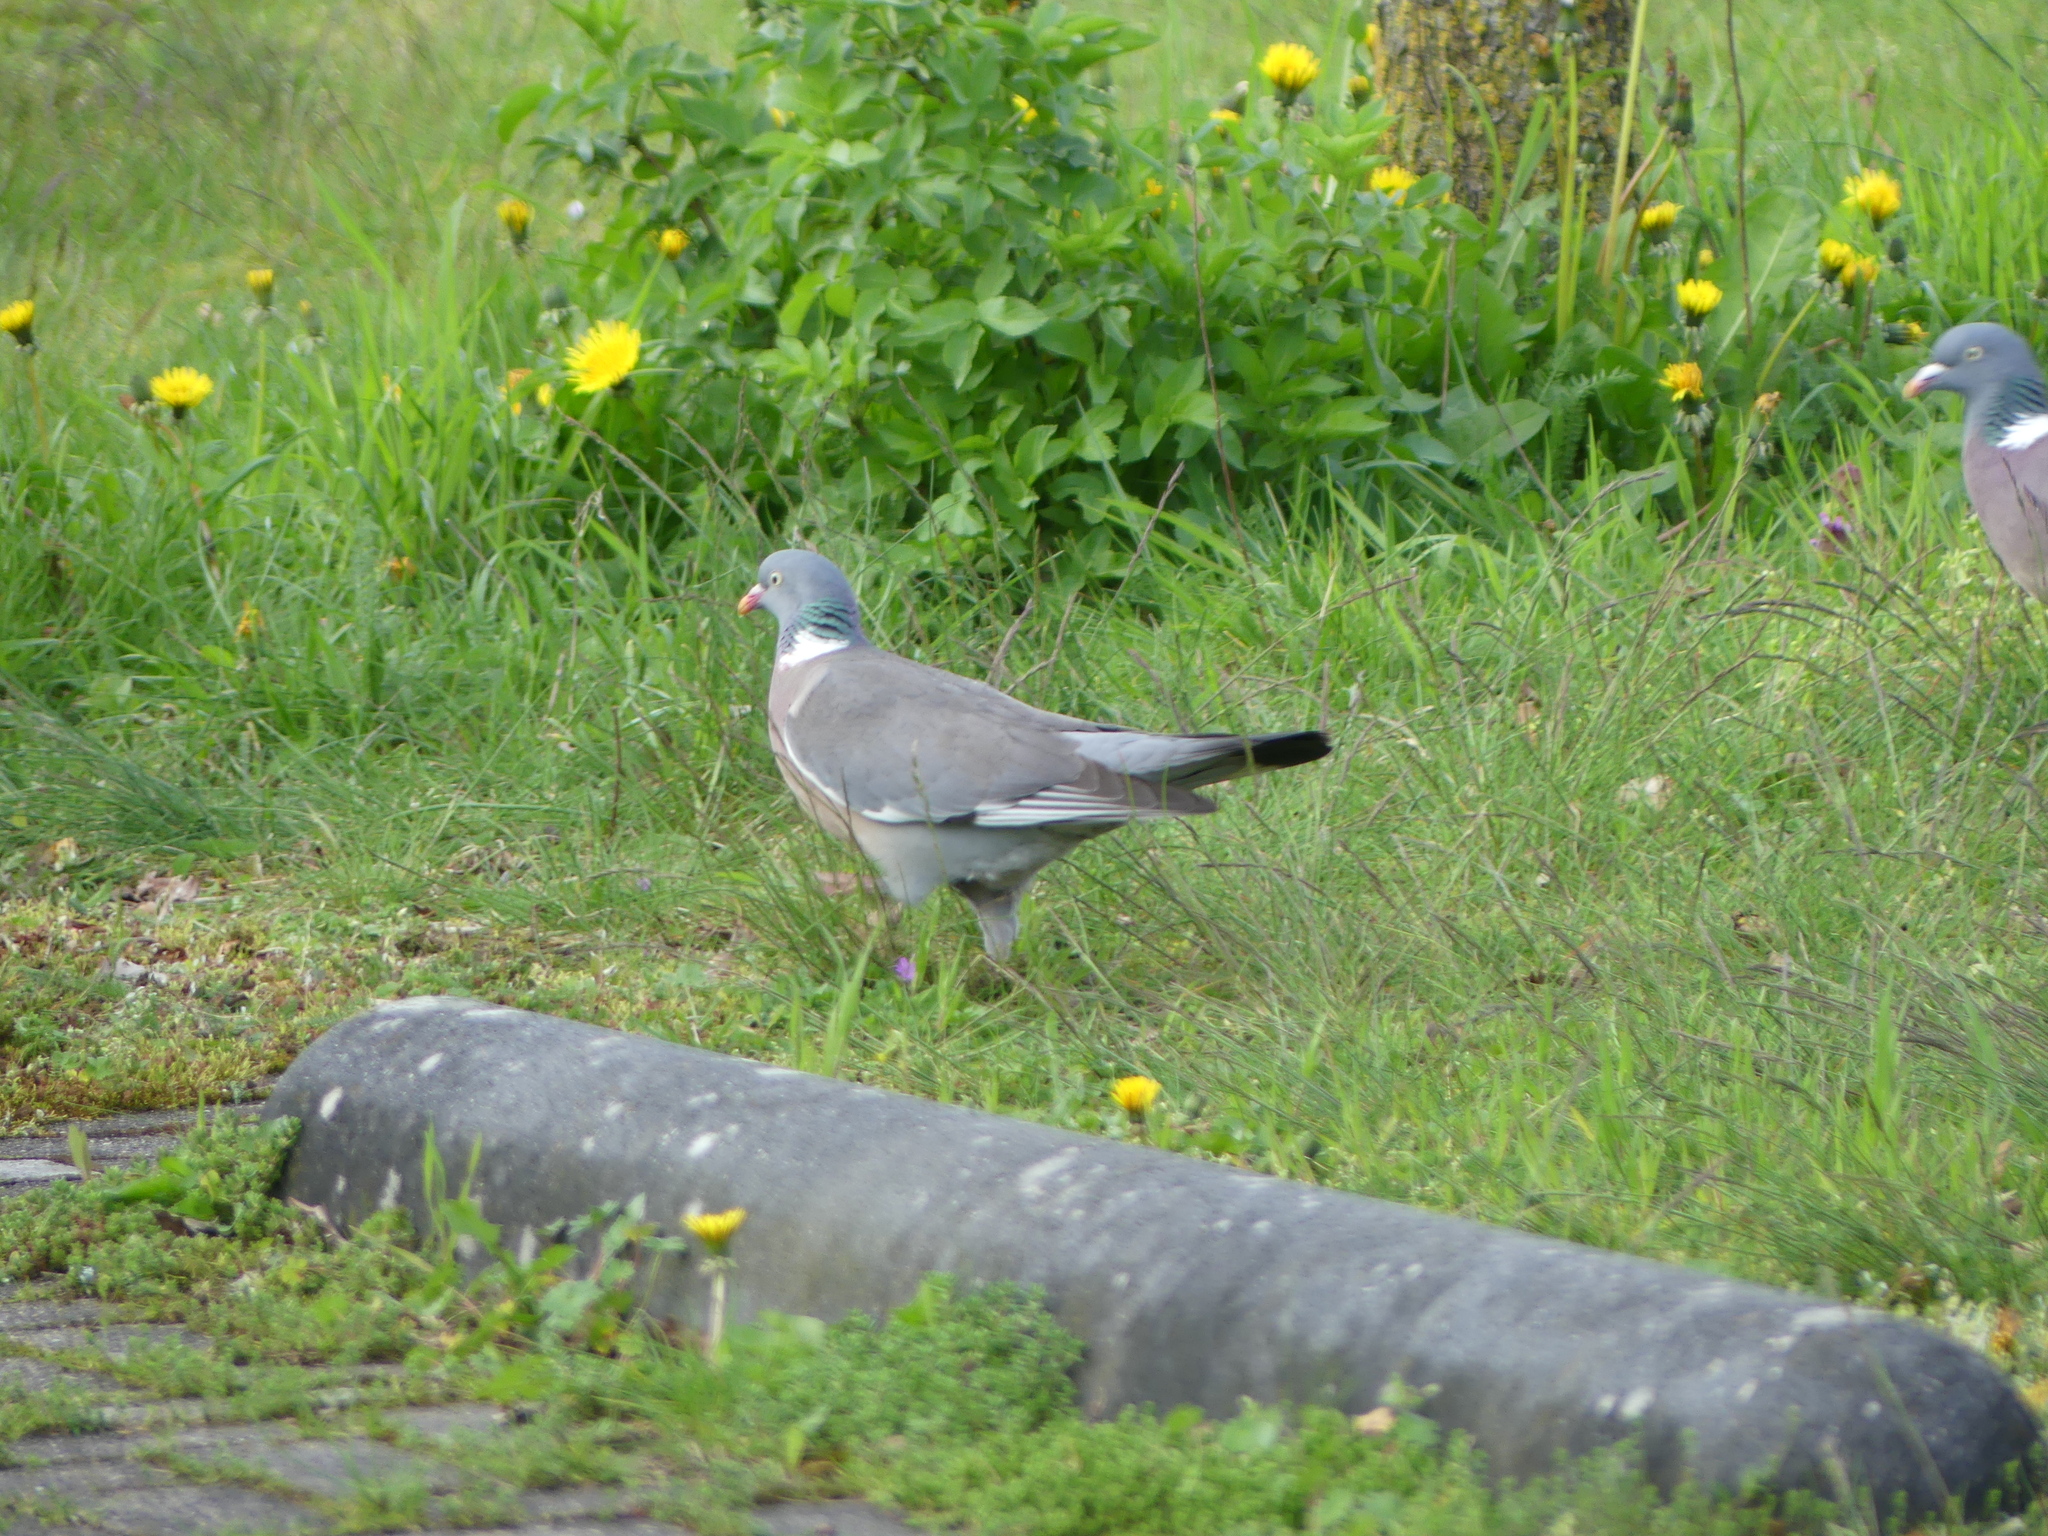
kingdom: Animalia
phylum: Chordata
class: Aves
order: Columbiformes
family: Columbidae
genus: Columba
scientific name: Columba palumbus
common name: Common wood pigeon
